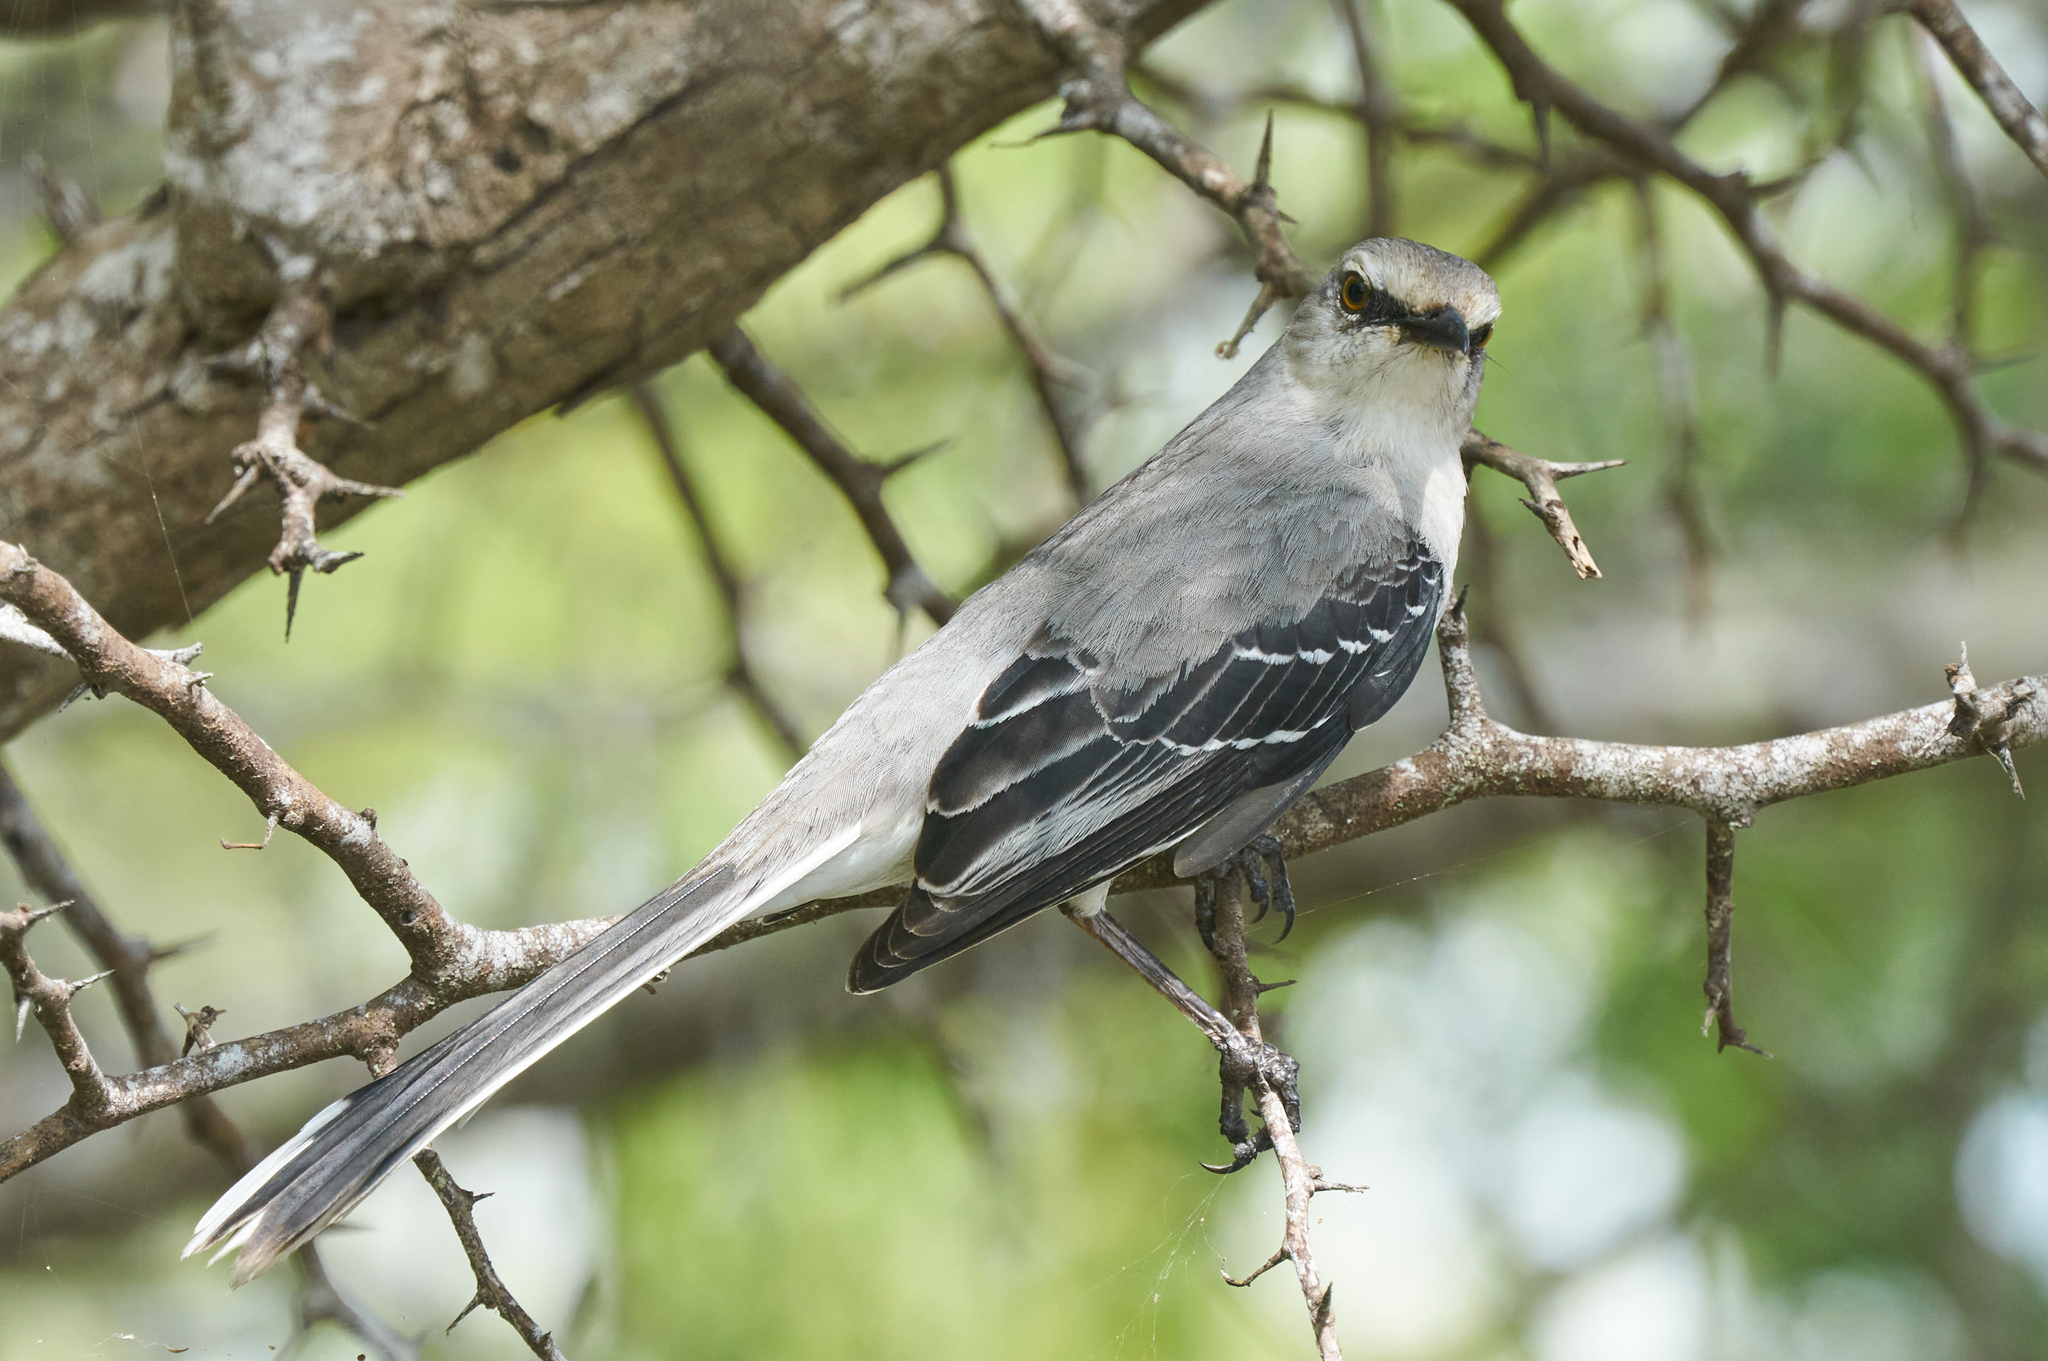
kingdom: Animalia
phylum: Chordata
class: Aves
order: Passeriformes
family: Mimidae
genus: Mimus
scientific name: Mimus gilvus
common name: Tropical mockingbird
